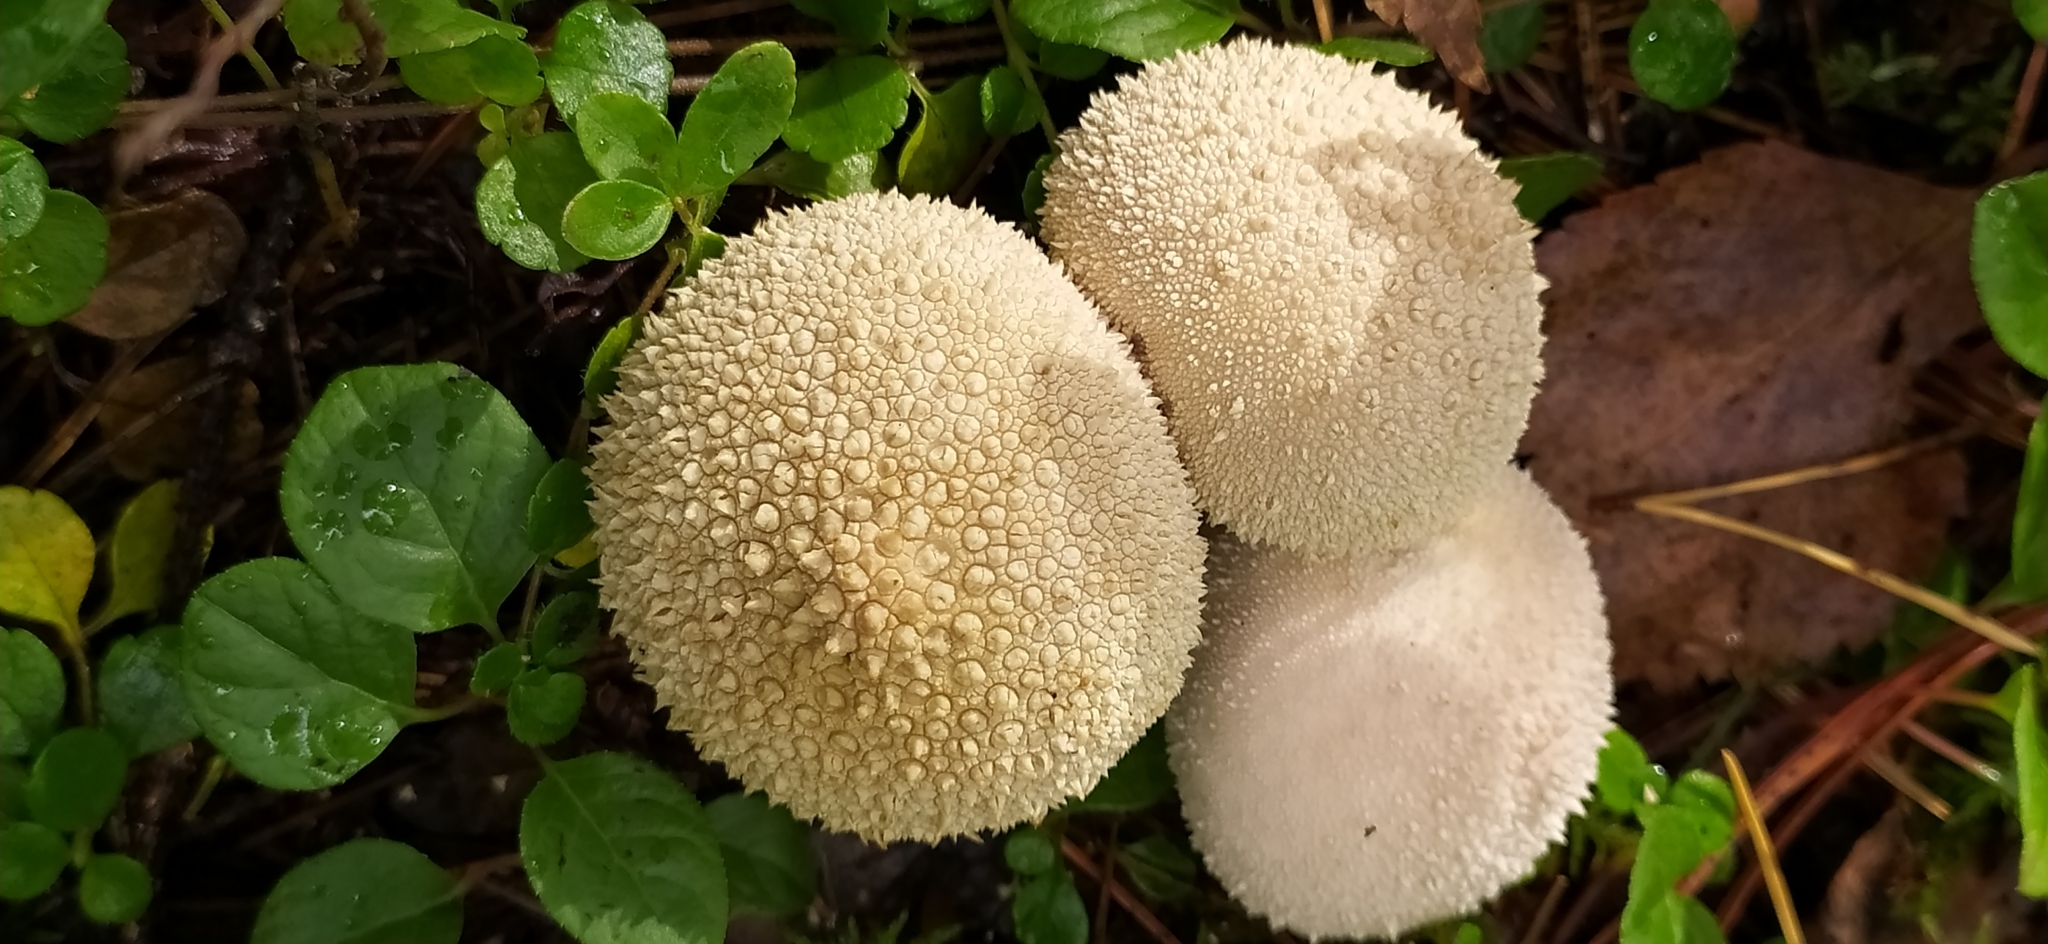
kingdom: Fungi
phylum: Basidiomycota
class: Agaricomycetes
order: Agaricales
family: Lycoperdaceae
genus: Lycoperdon
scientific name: Lycoperdon perlatum
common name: Common puffball
